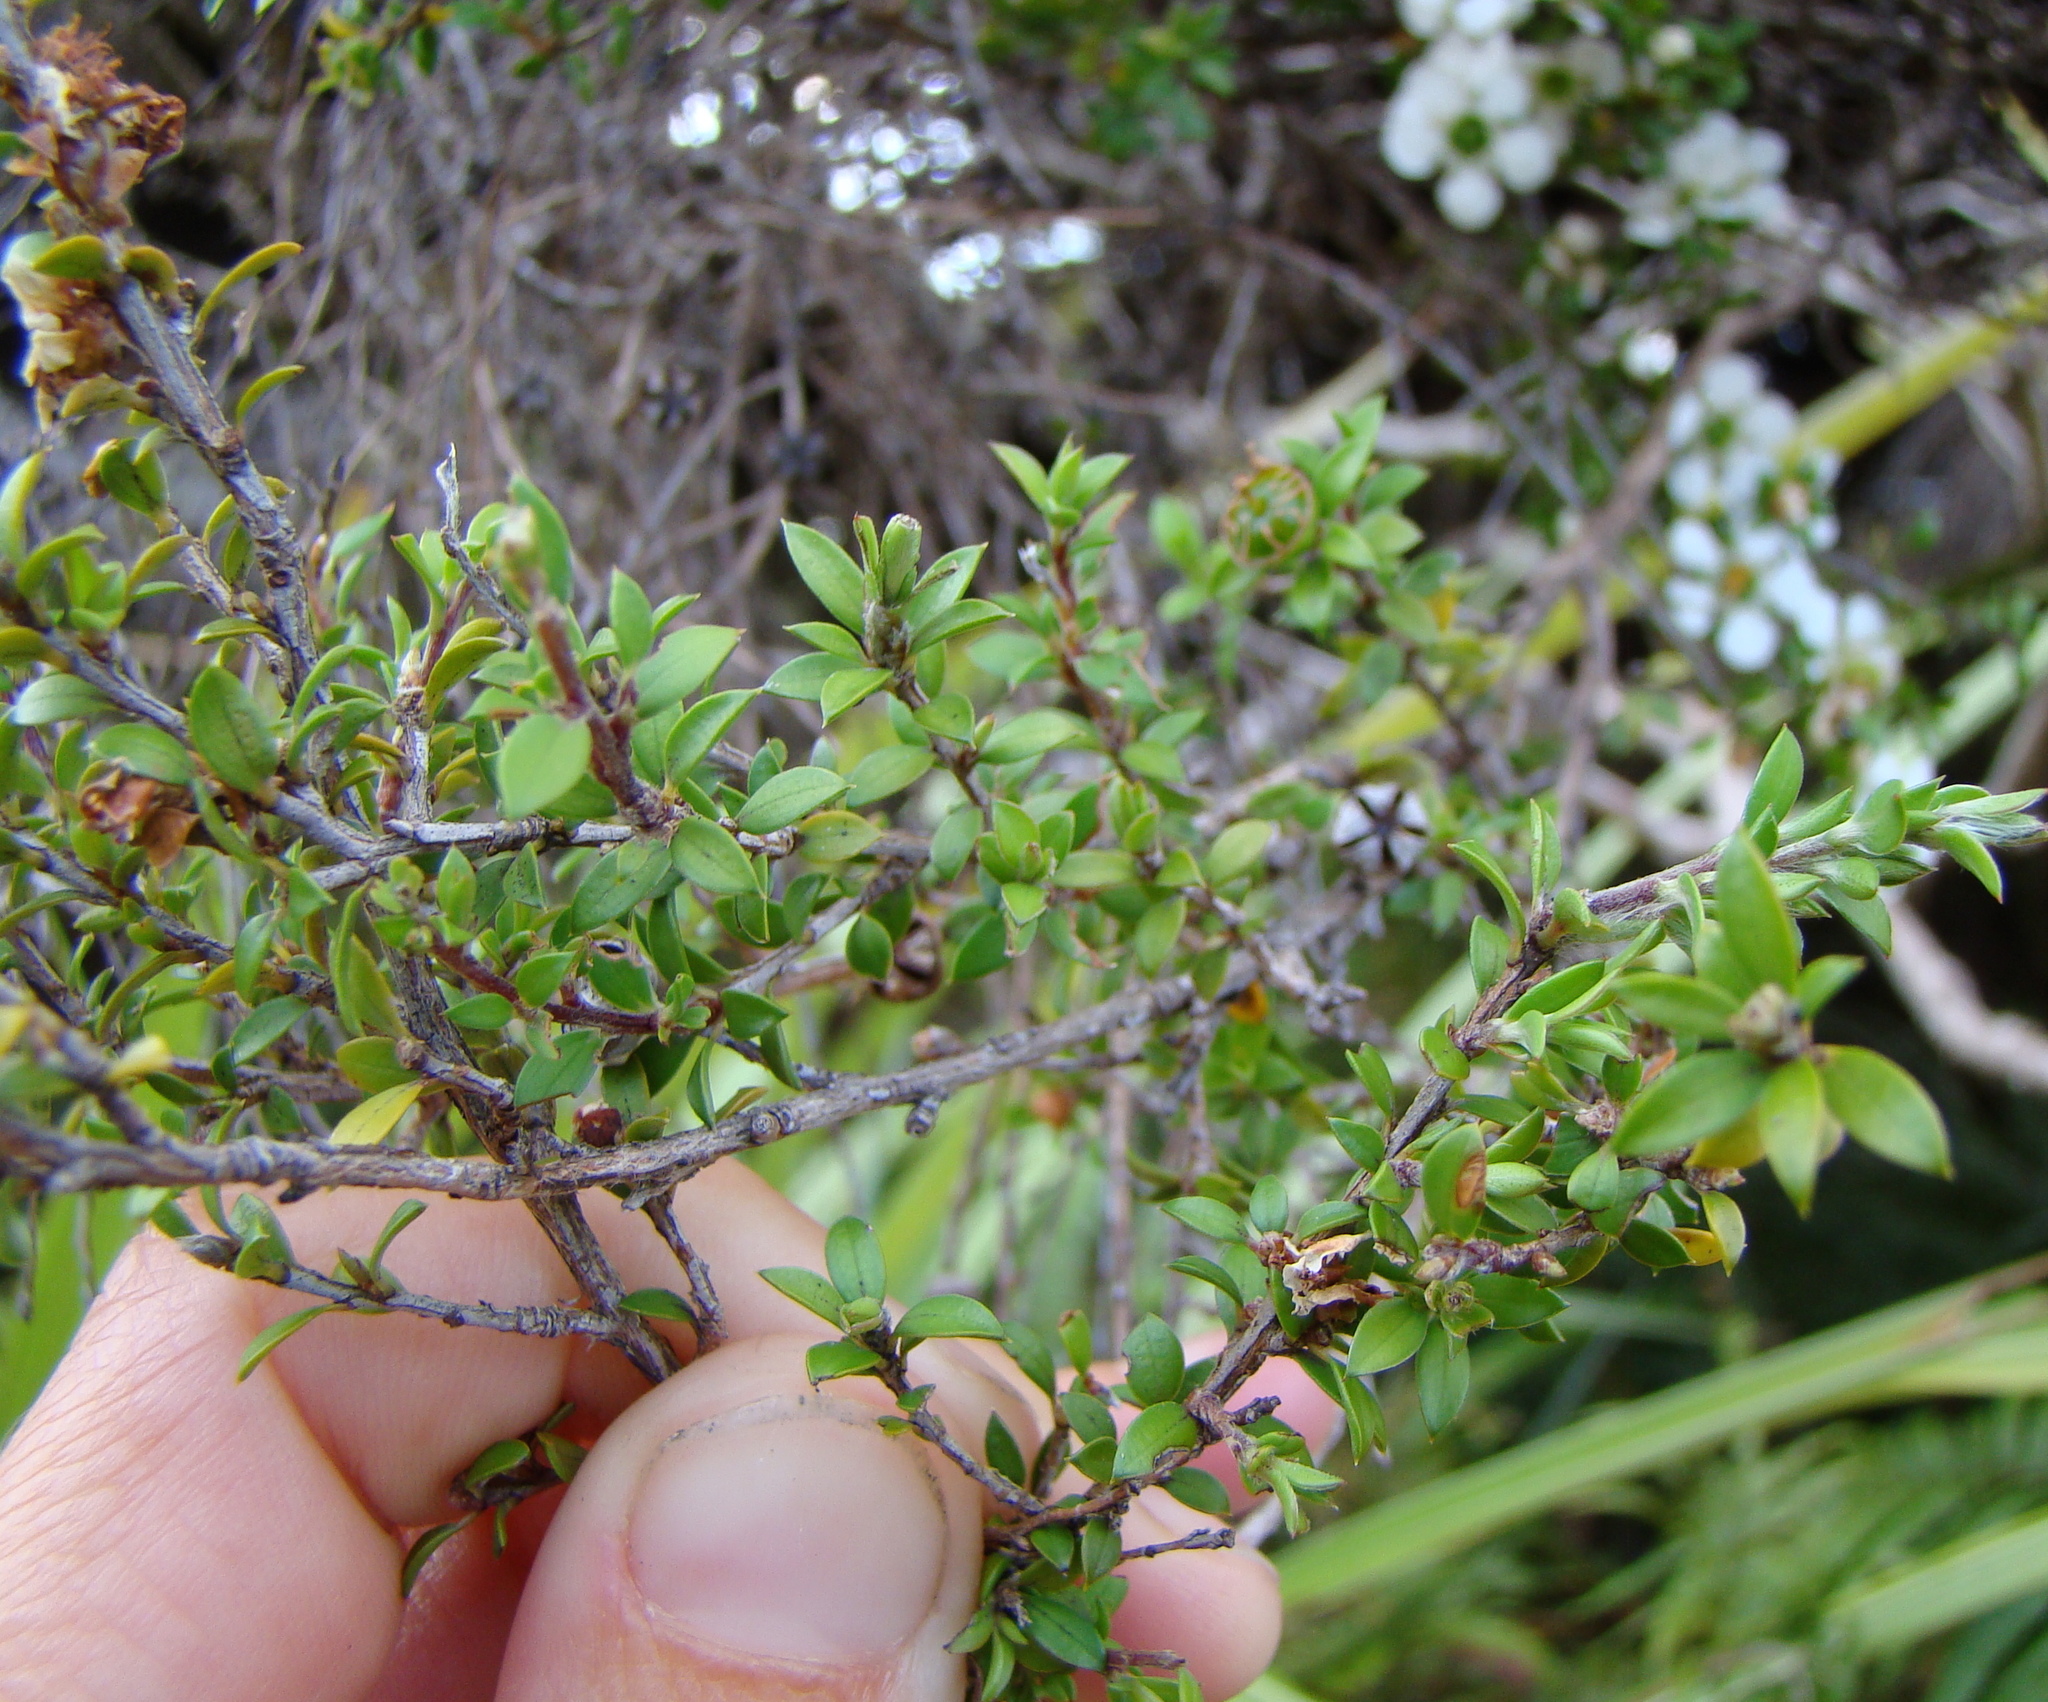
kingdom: Plantae
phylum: Tracheophyta
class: Magnoliopsida
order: Myrtales
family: Myrtaceae
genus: Leptospermum
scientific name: Leptospermum scoparium
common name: Broom tea-tree
